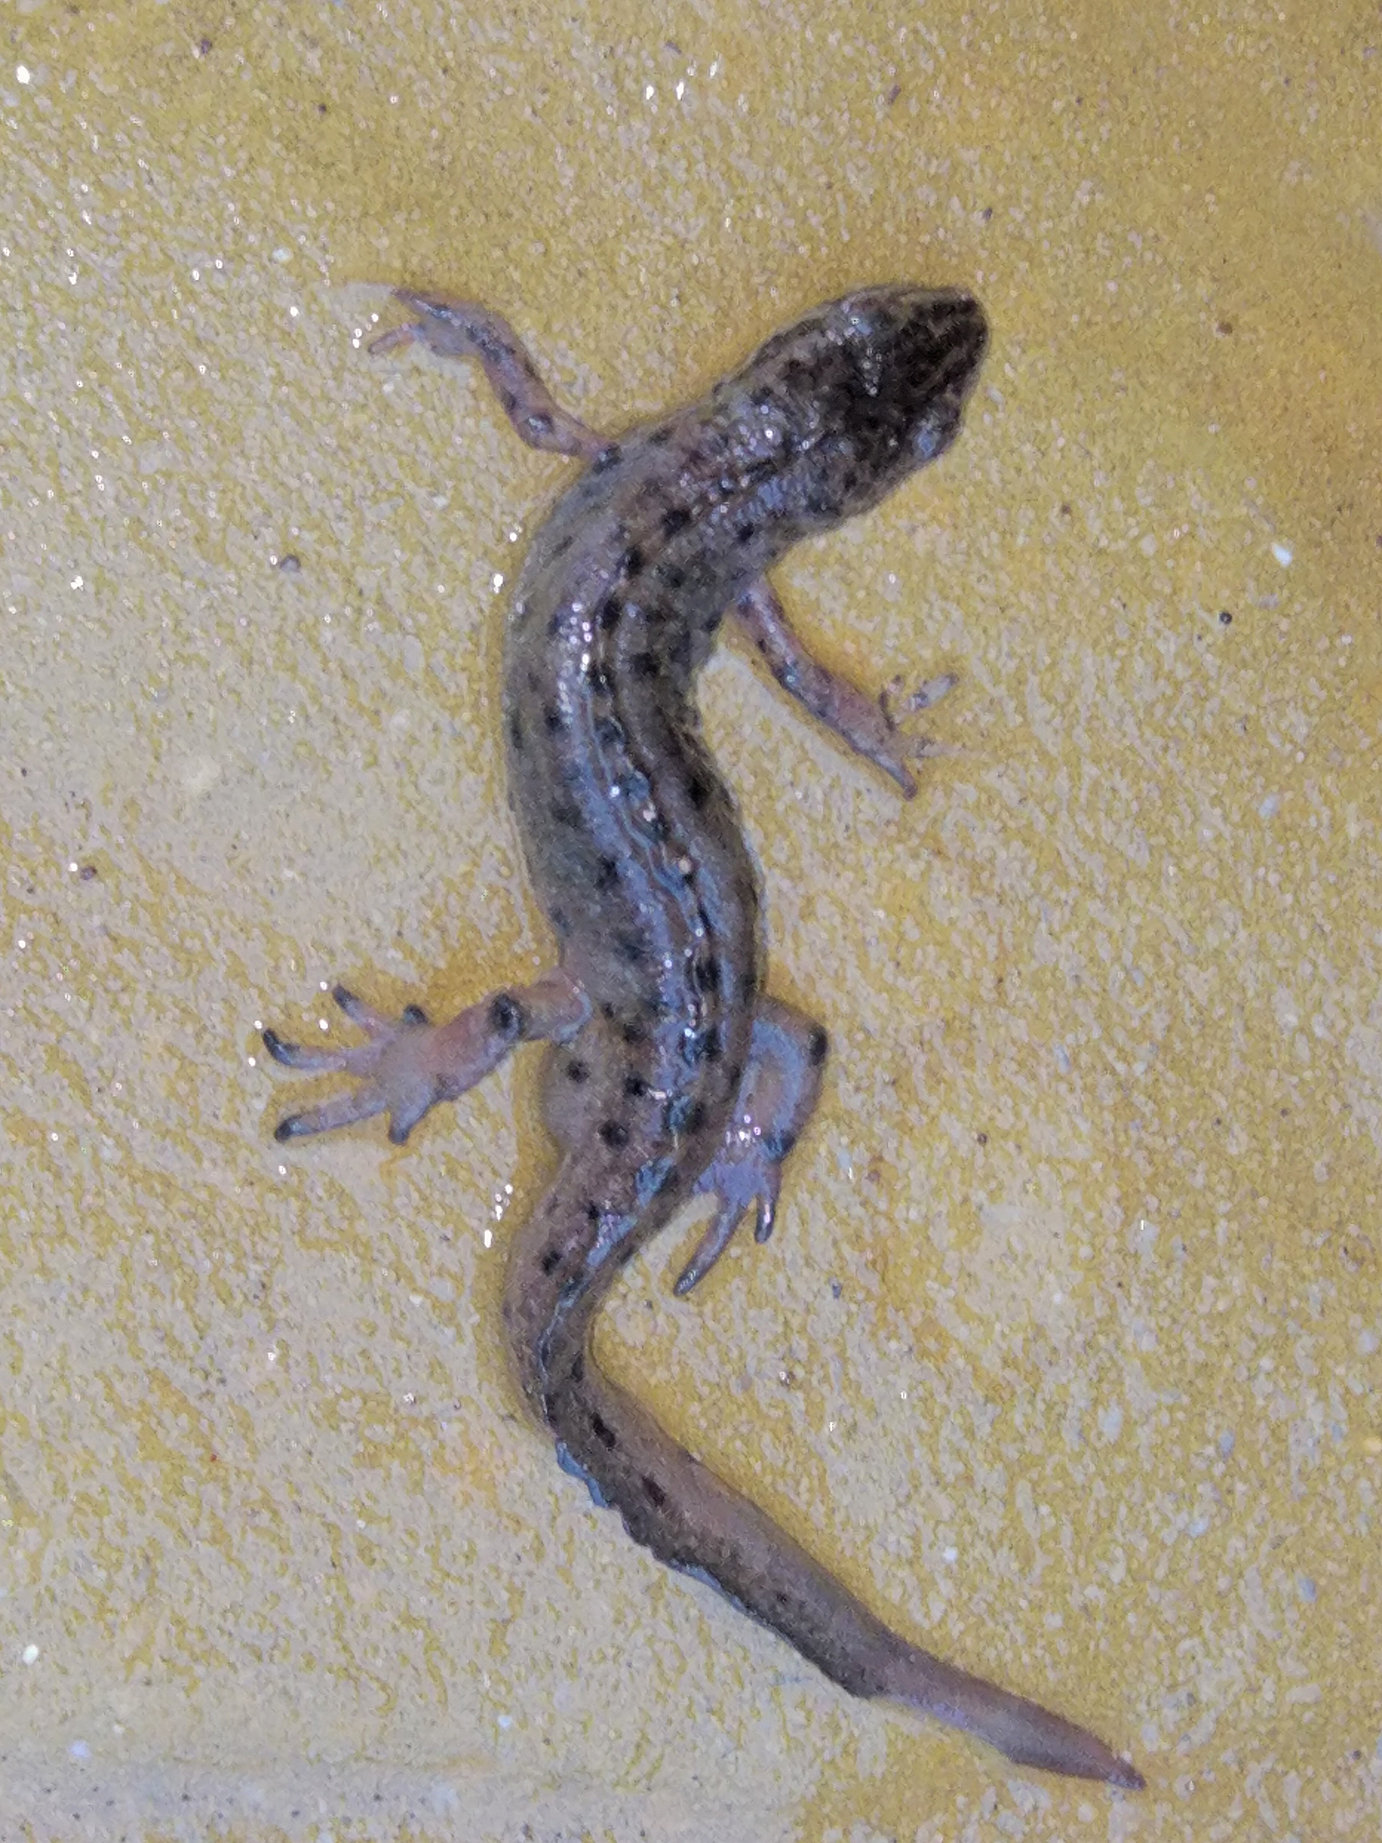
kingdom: Animalia
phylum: Chordata
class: Amphibia
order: Caudata
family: Salamandridae
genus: Lissotriton
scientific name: Lissotriton schmidtleri
